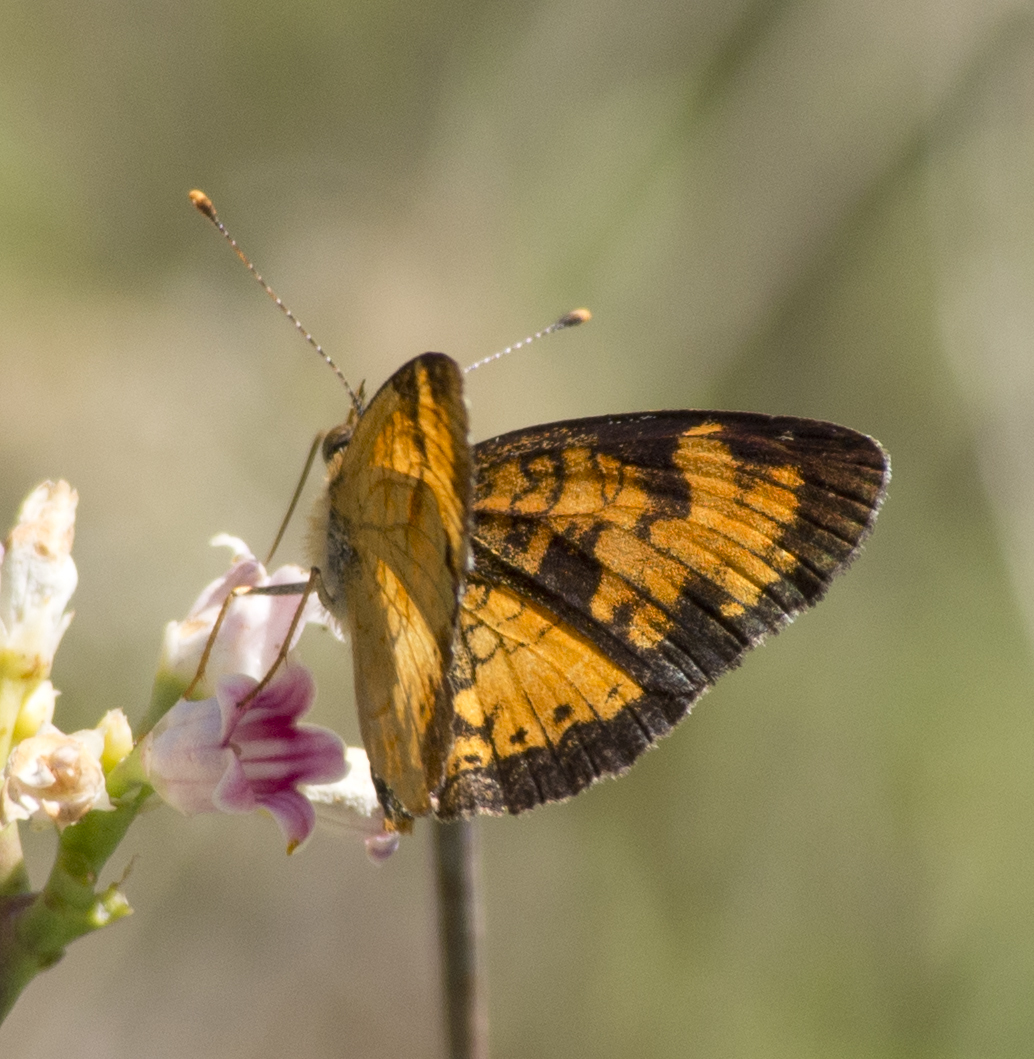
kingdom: Animalia
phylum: Arthropoda
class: Insecta
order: Lepidoptera
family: Nymphalidae
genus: Phyciodes
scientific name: Phyciodes tharos
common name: Pearl crescent
